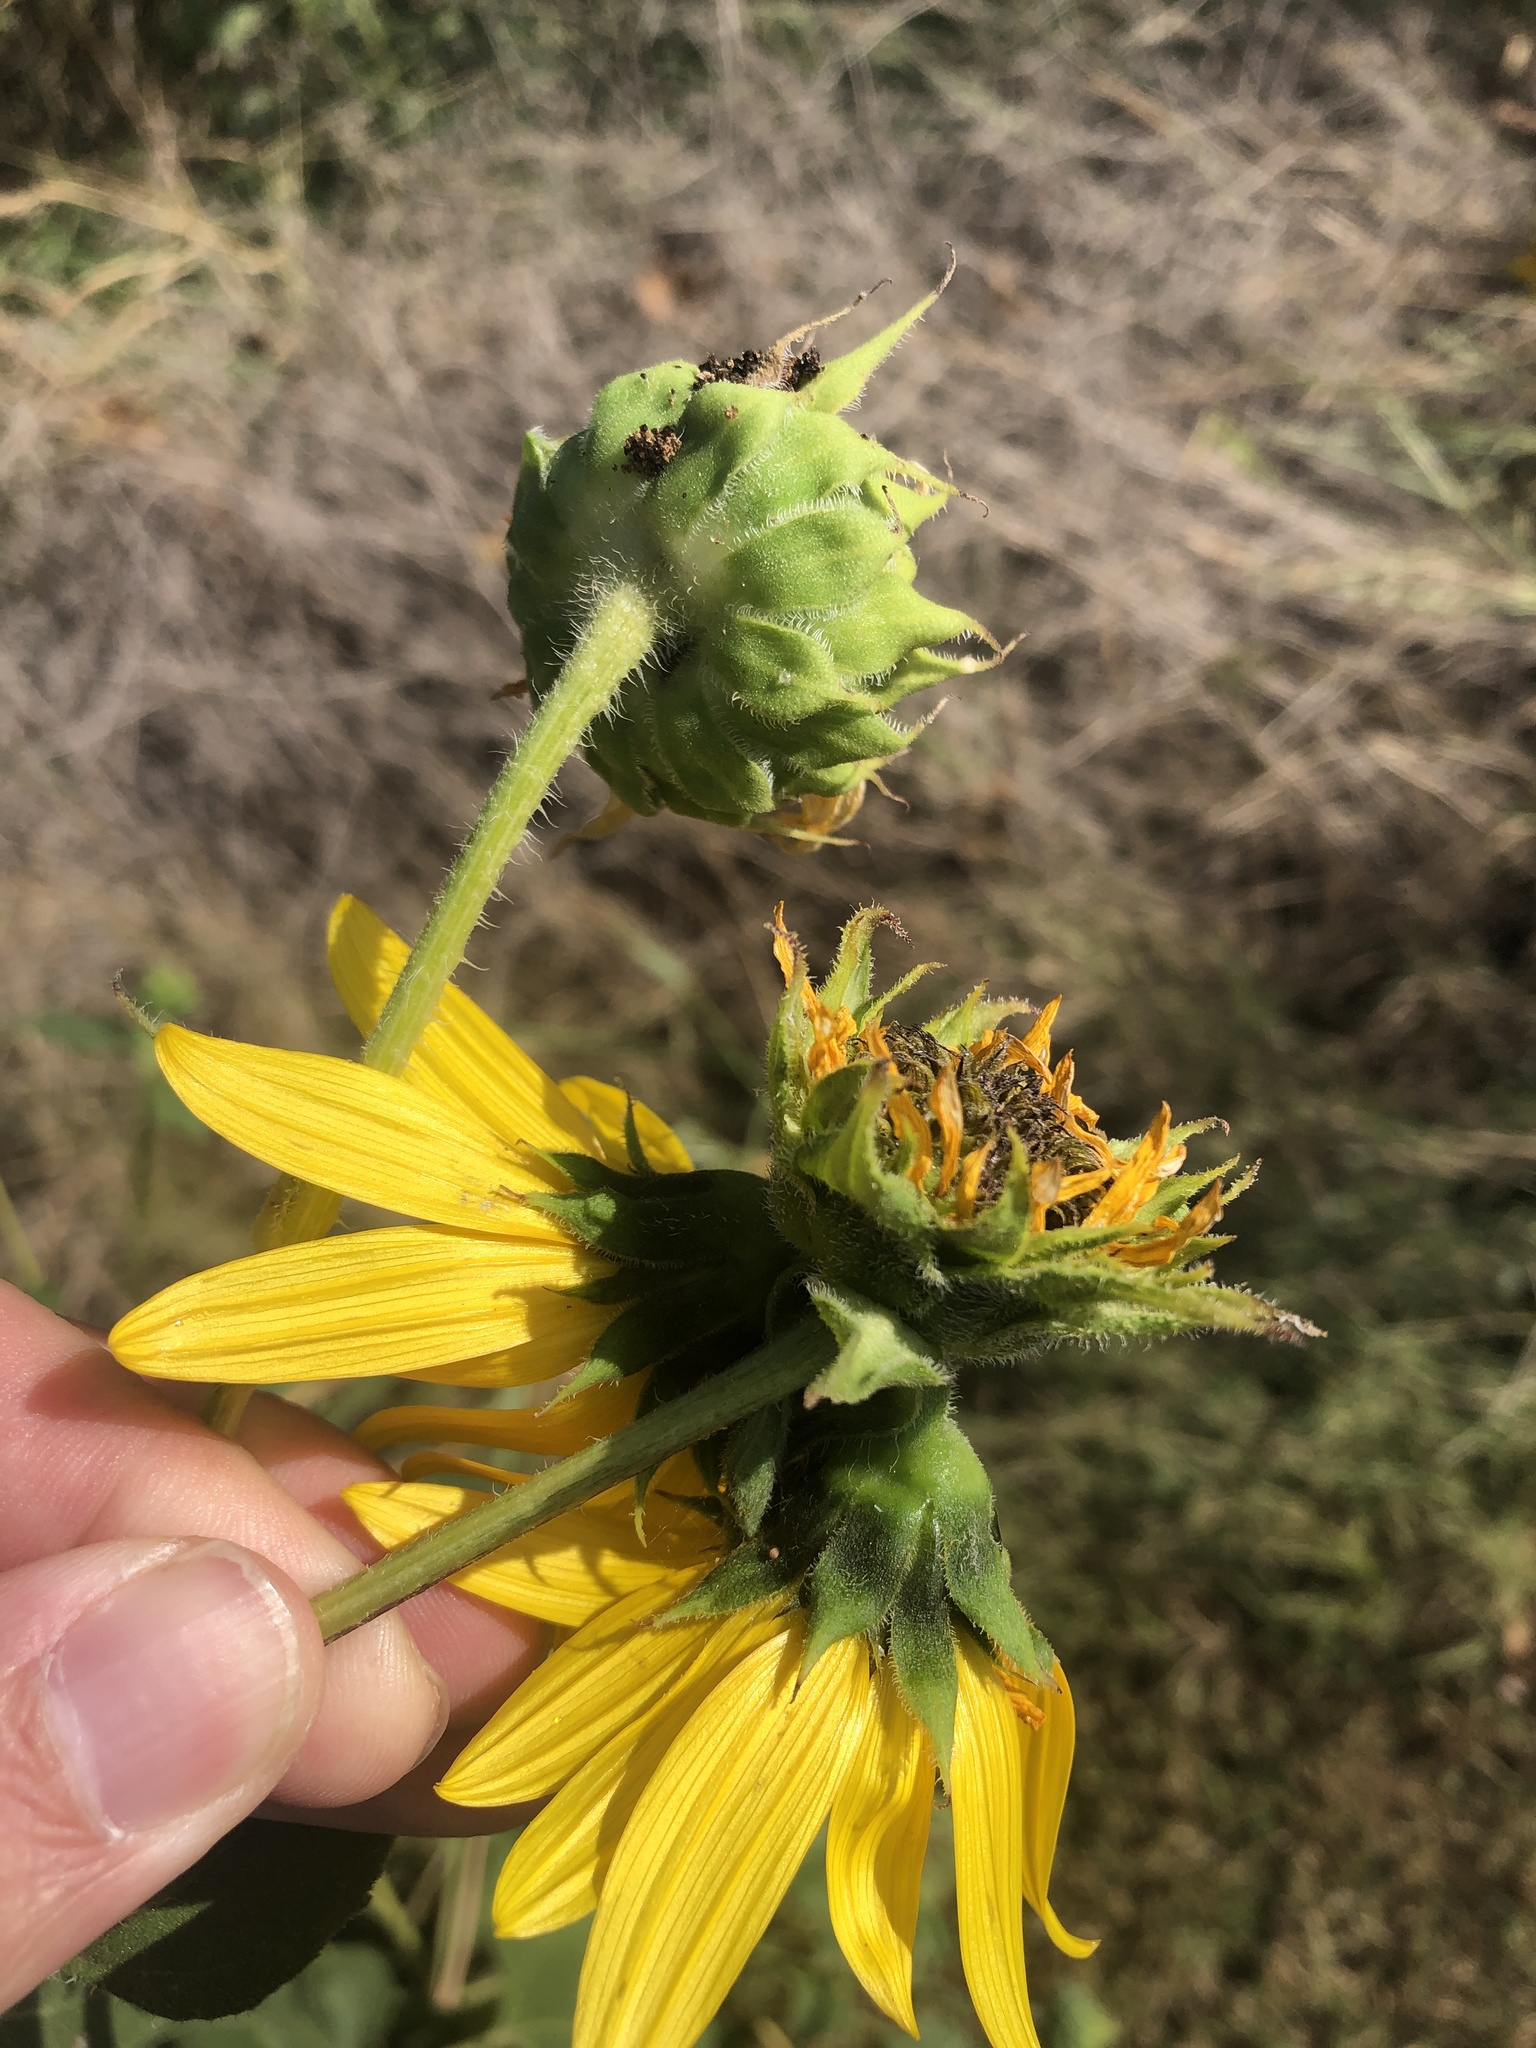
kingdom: Plantae
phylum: Tracheophyta
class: Magnoliopsida
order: Asterales
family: Asteraceae
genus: Helianthus
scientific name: Helianthus annuus
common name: Sunflower
